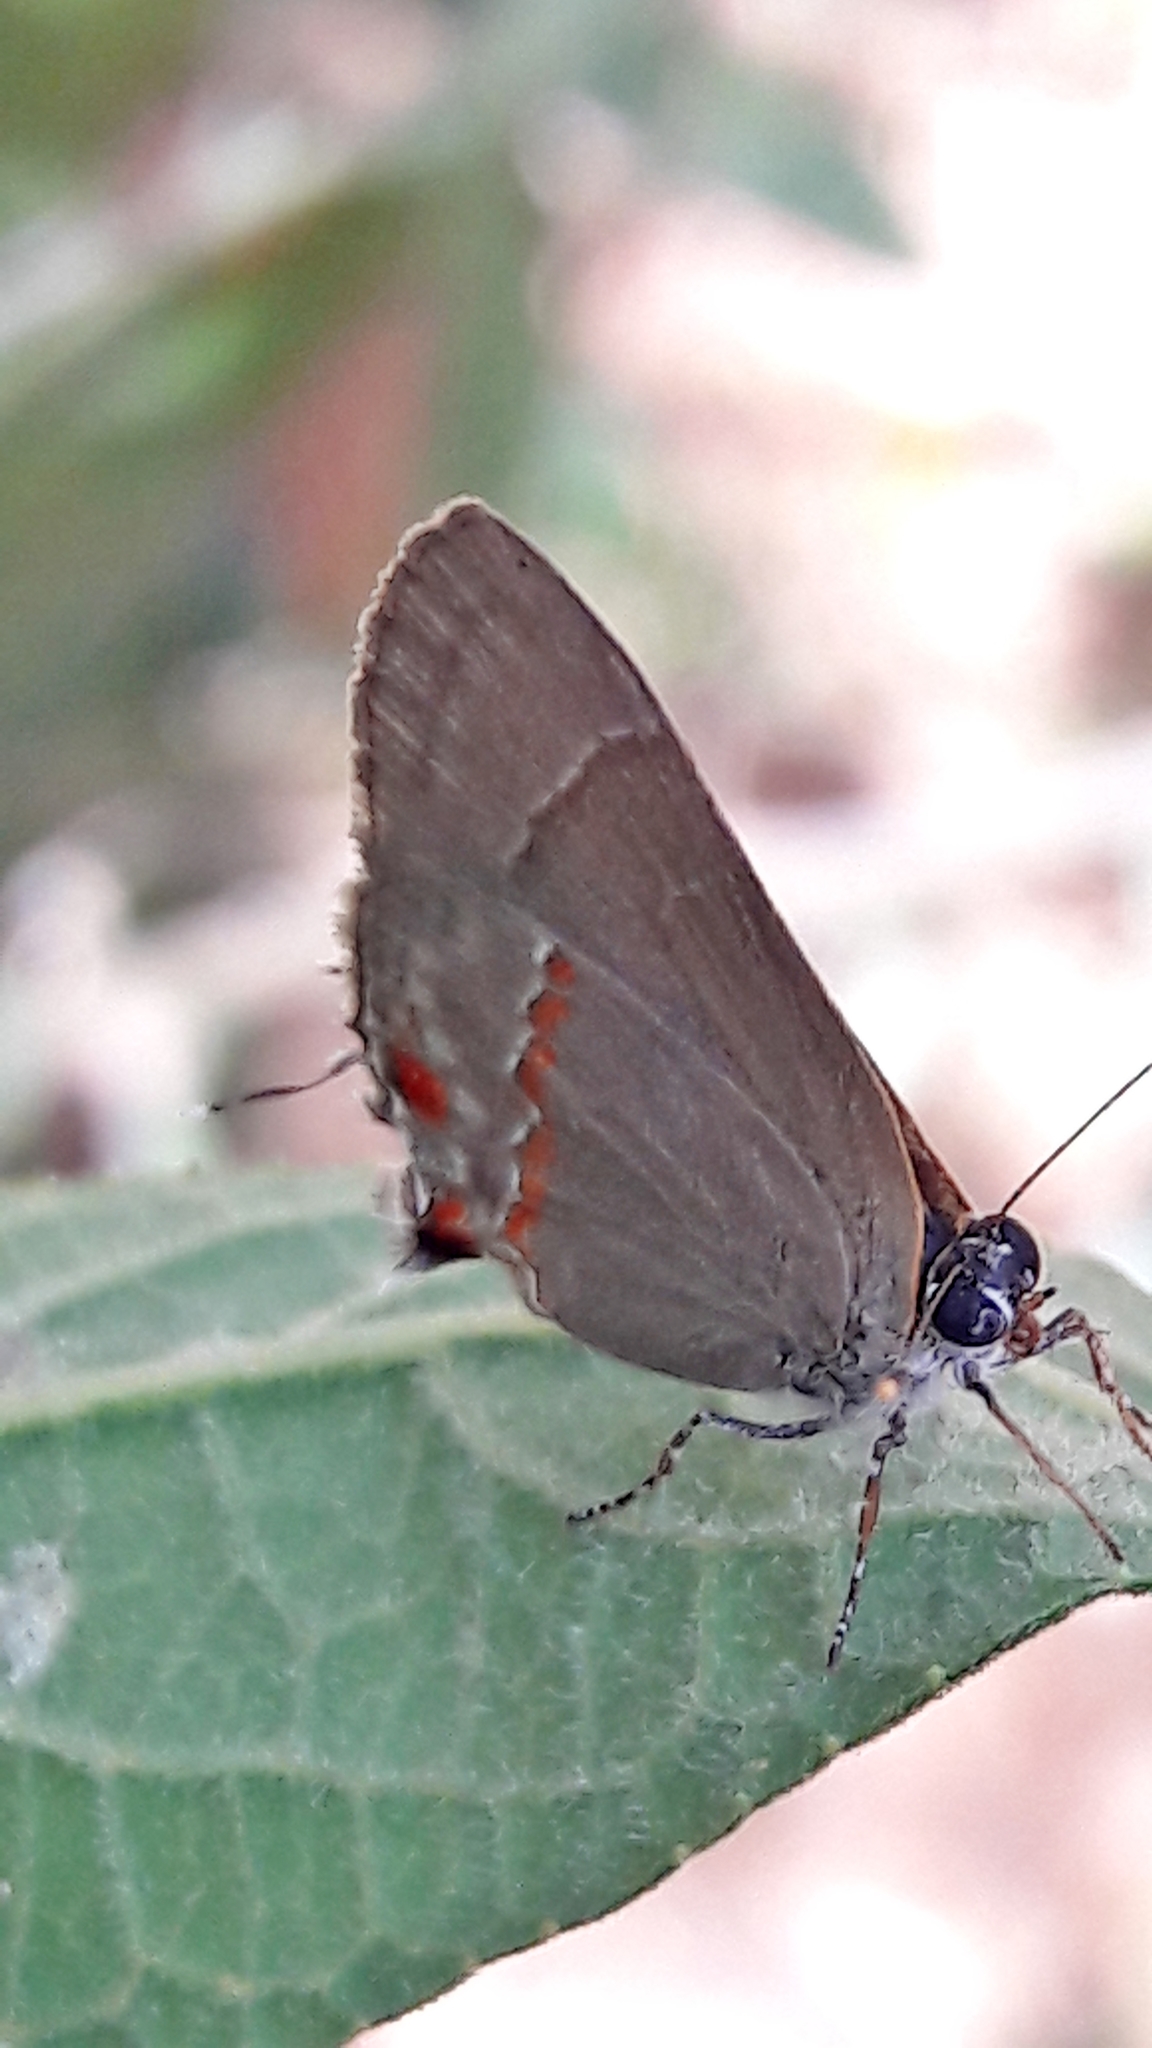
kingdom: Animalia
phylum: Arthropoda
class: Insecta
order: Lepidoptera
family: Lycaenidae
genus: Thecla
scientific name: Thecla syllis
